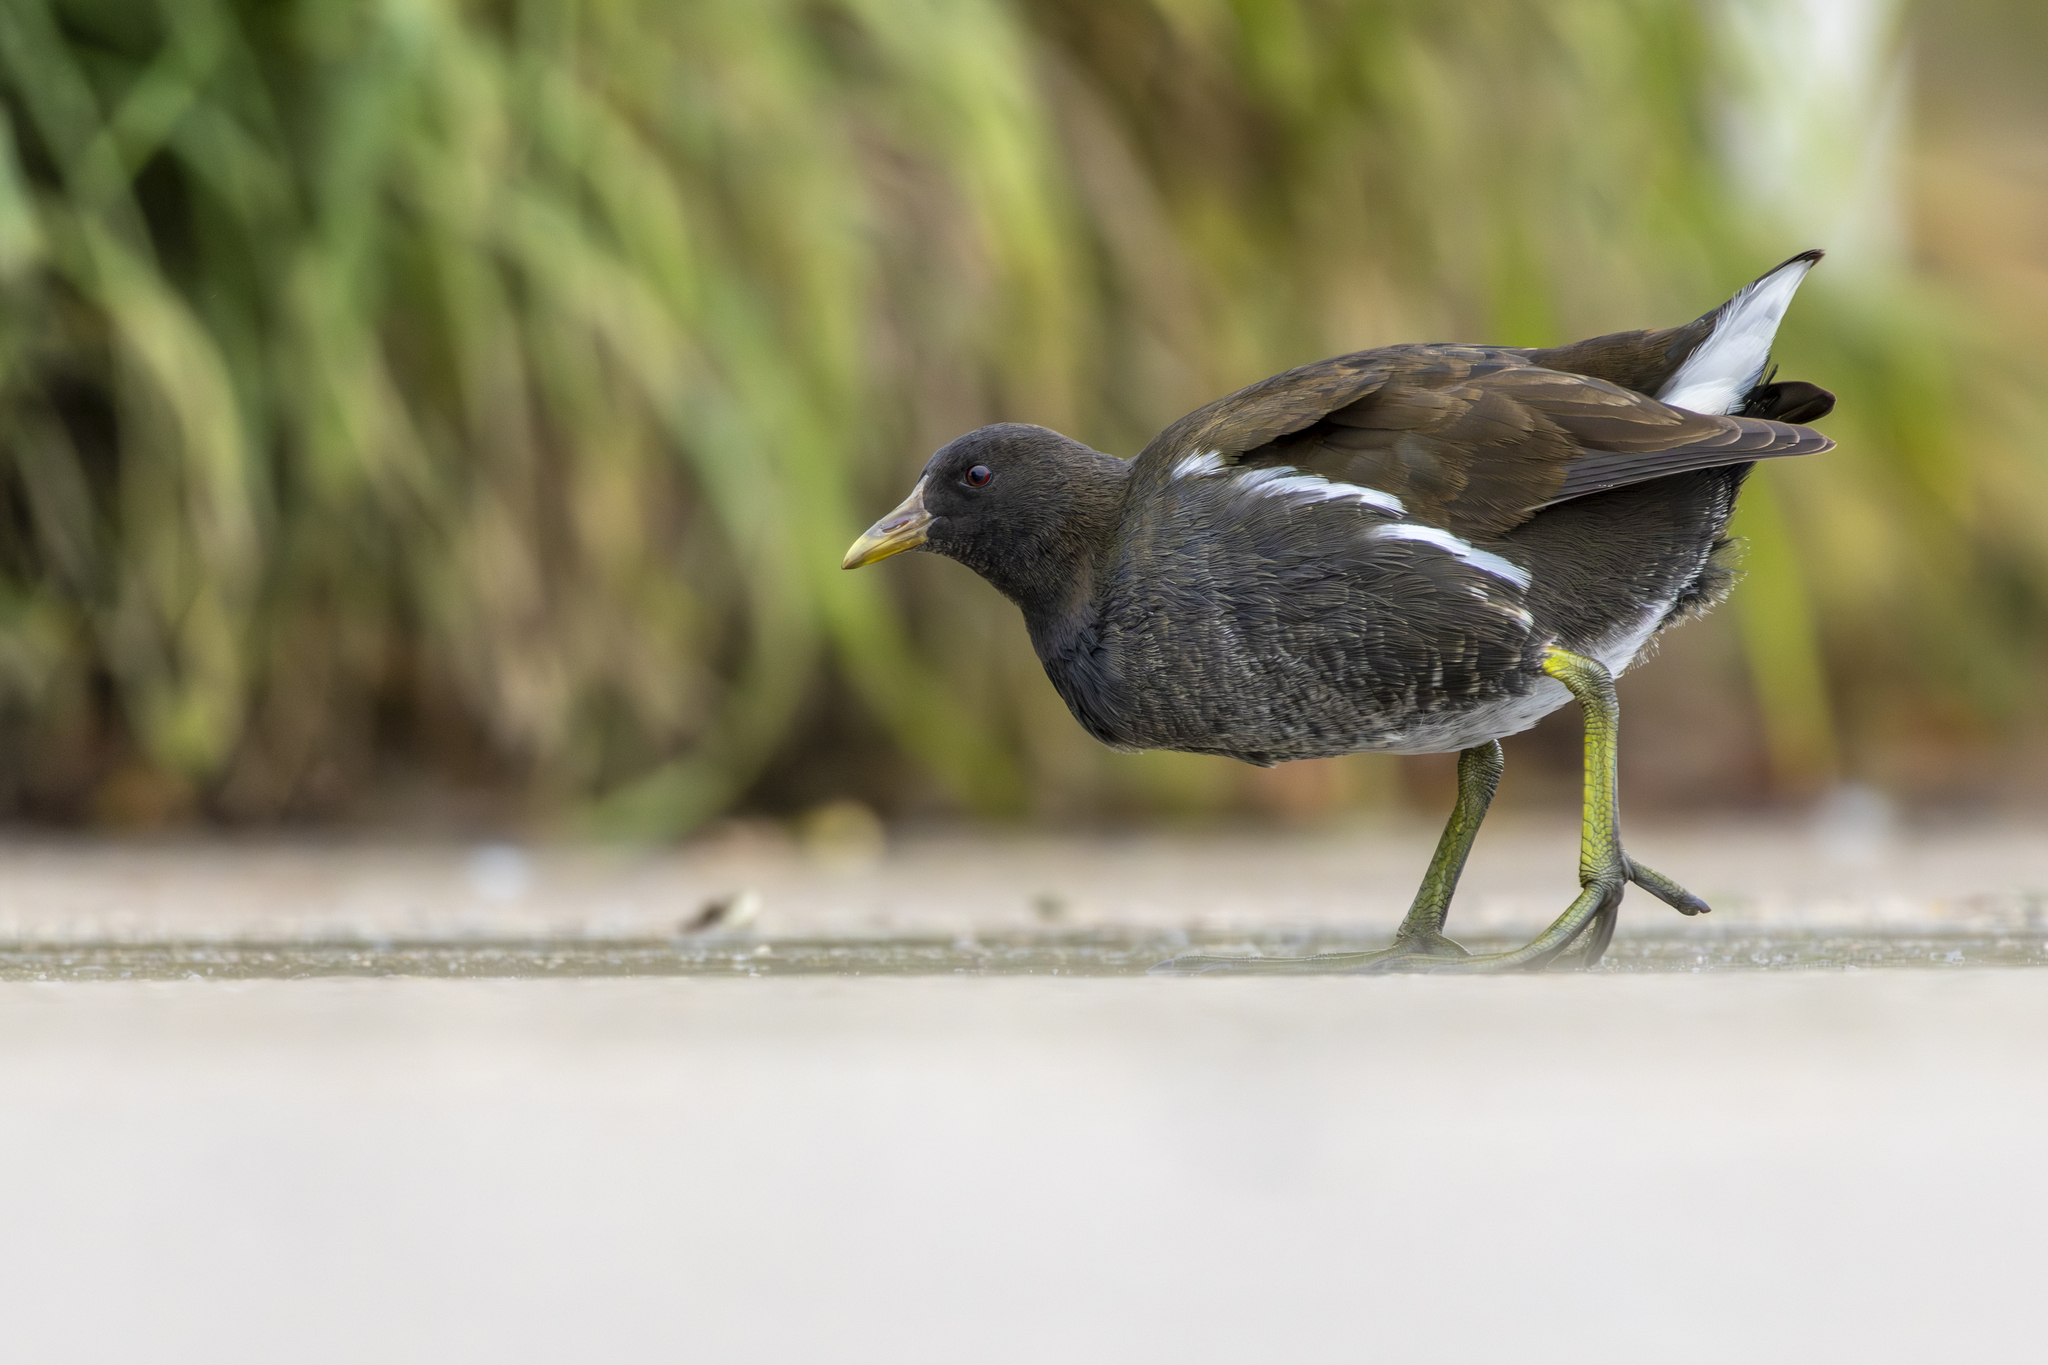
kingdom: Animalia
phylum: Chordata
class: Aves
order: Gruiformes
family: Rallidae
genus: Gallinula
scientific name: Gallinula chloropus
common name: Common moorhen
